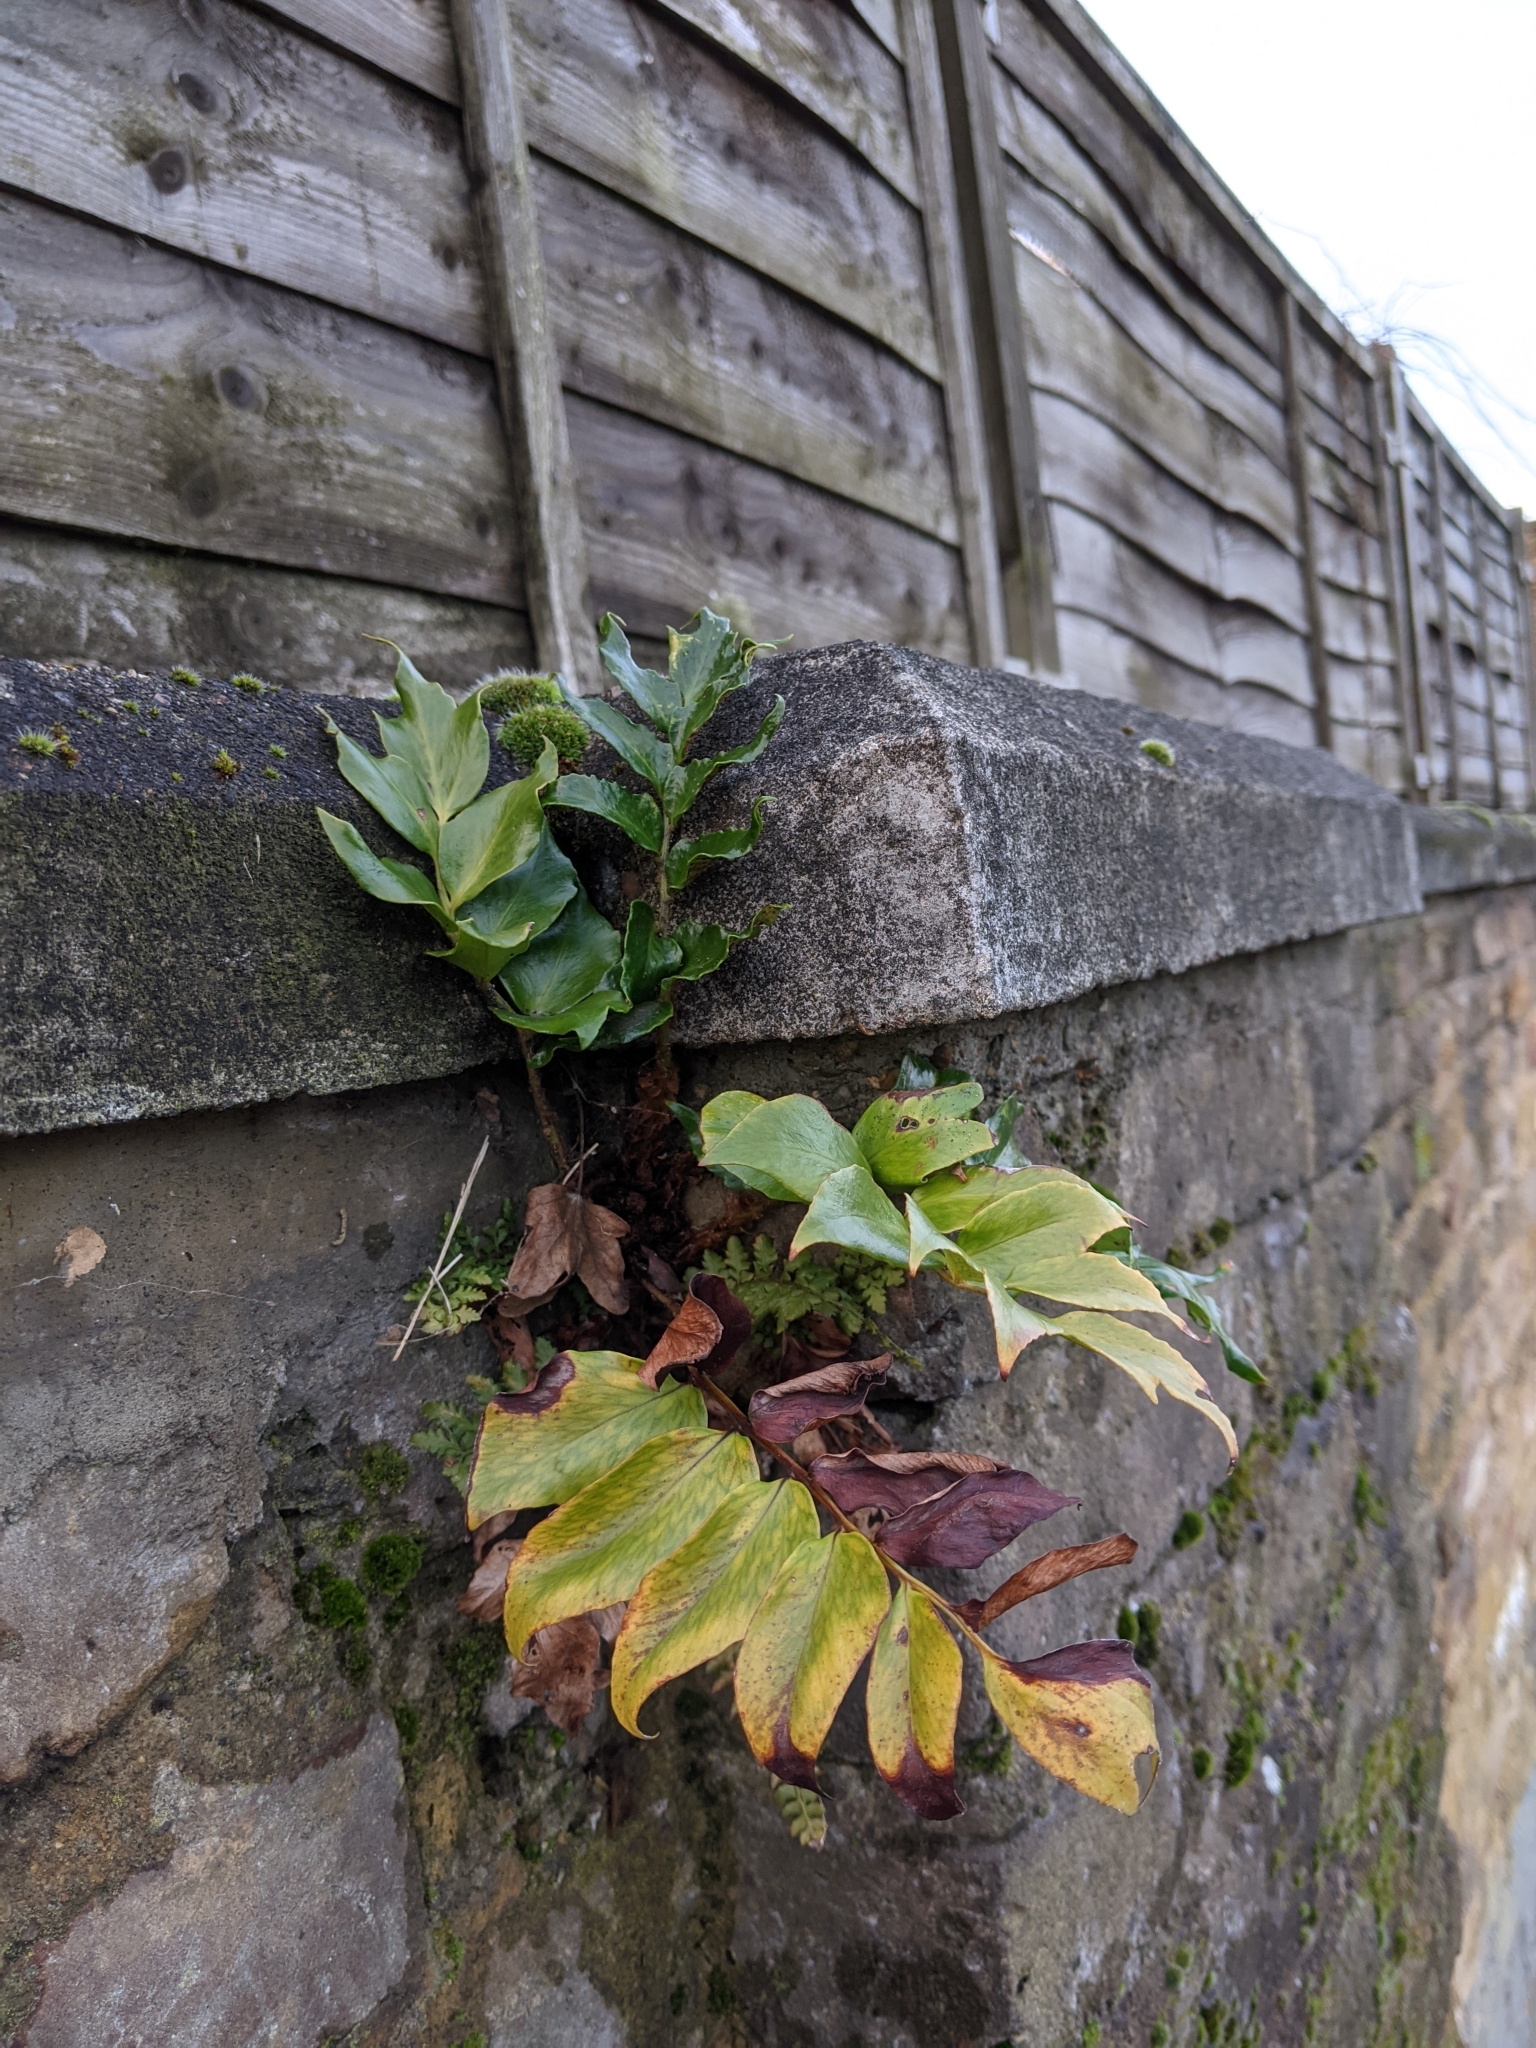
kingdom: Plantae
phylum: Tracheophyta
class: Polypodiopsida
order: Polypodiales
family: Dryopteridaceae
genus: Cyrtomium
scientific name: Cyrtomium falcatum
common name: House holly-fern
